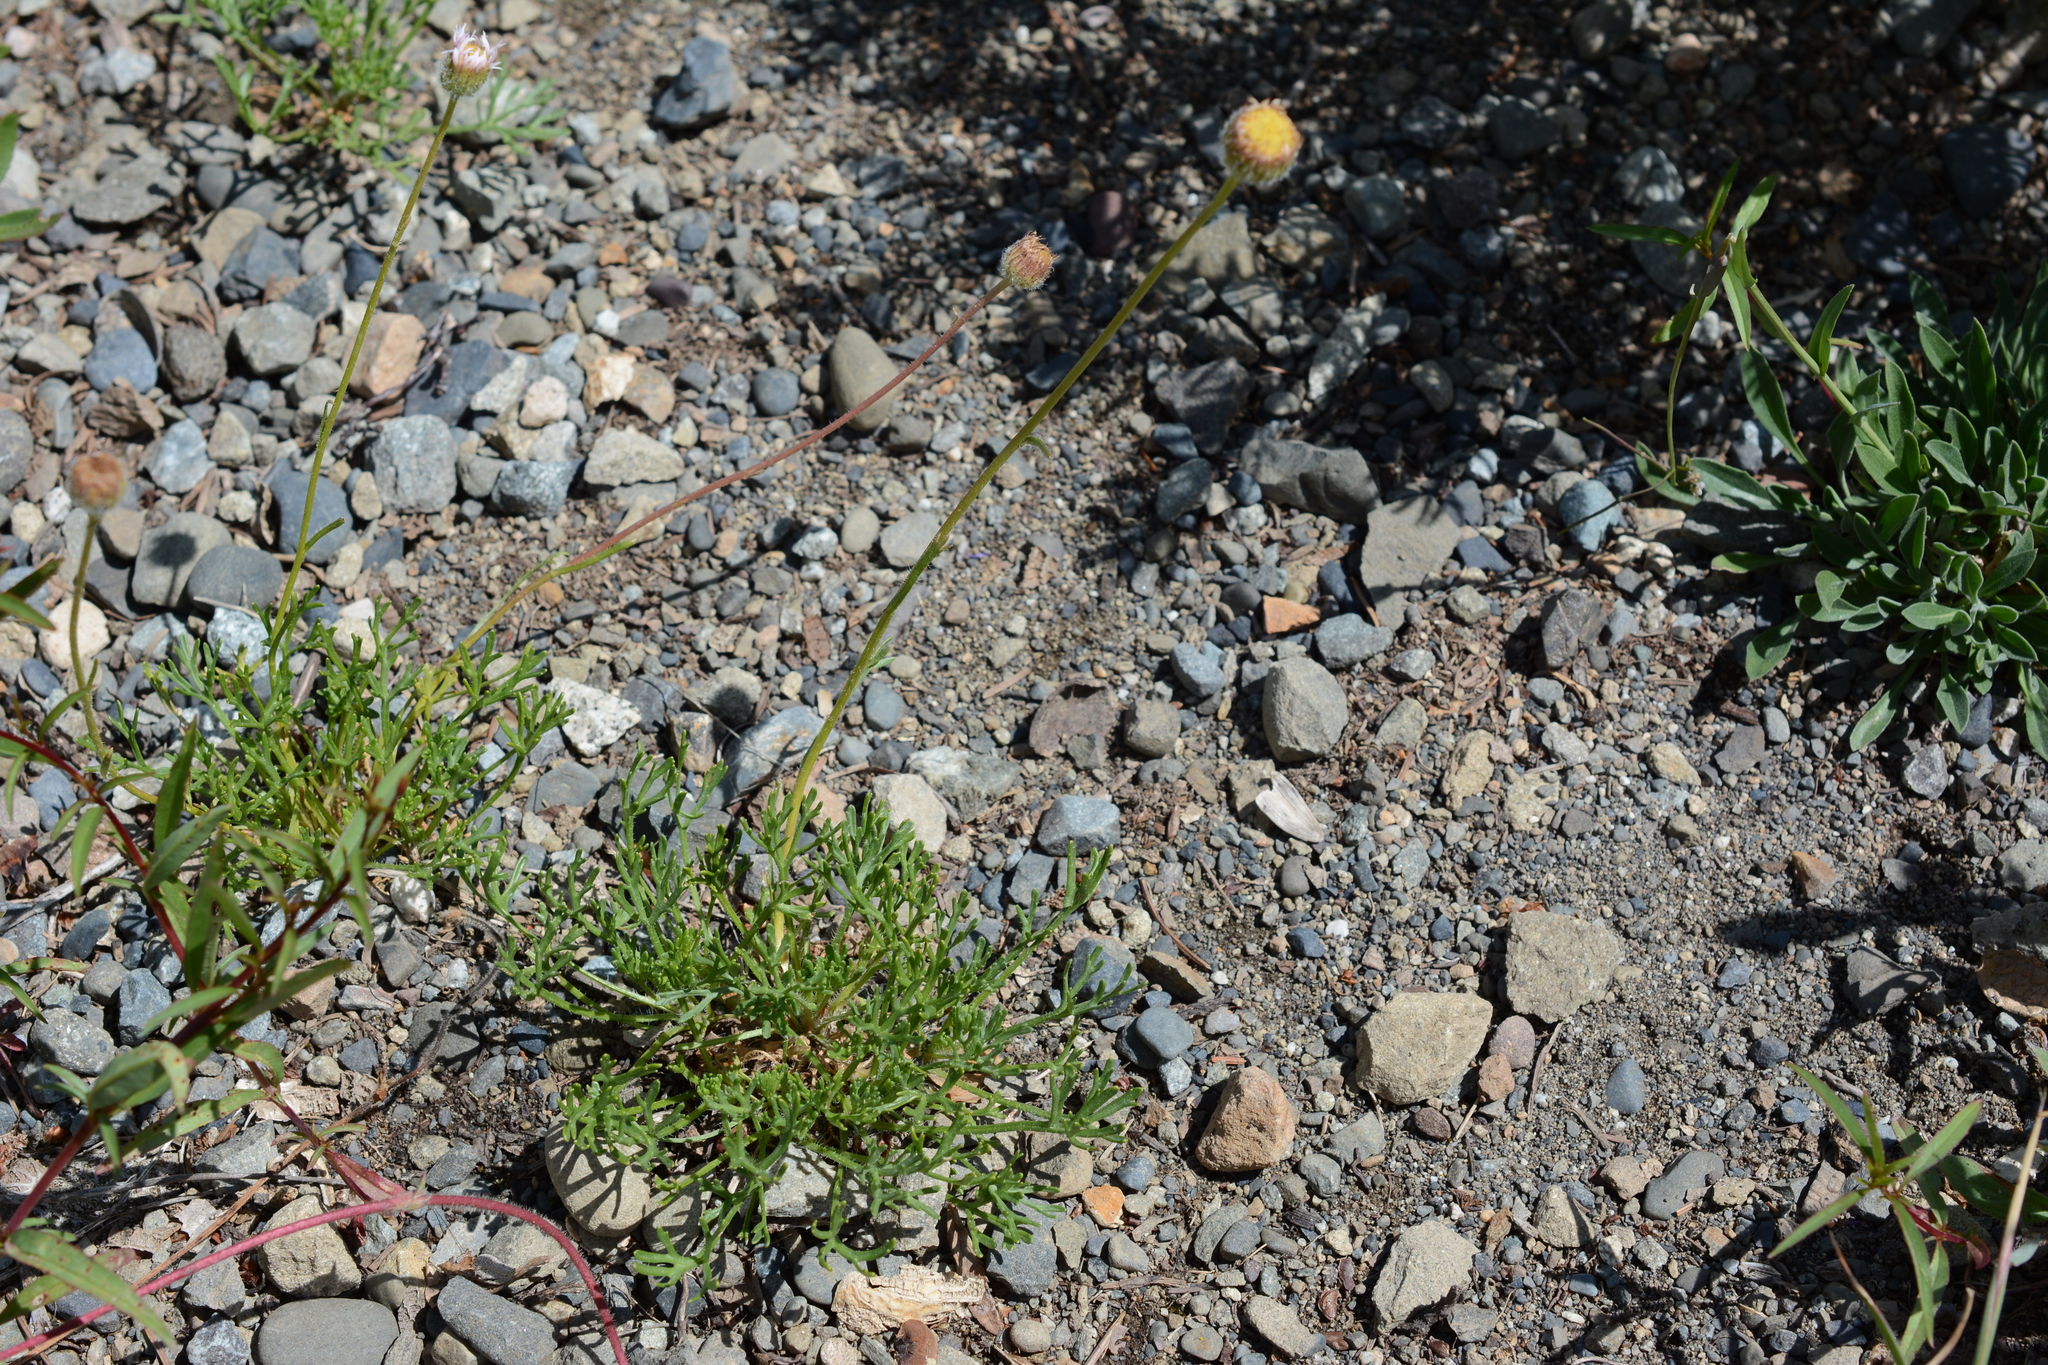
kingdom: Plantae
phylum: Tracheophyta
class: Magnoliopsida
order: Asterales
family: Asteraceae
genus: Erigeron
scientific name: Erigeron compositus
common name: Dwarf mountain fleabane
